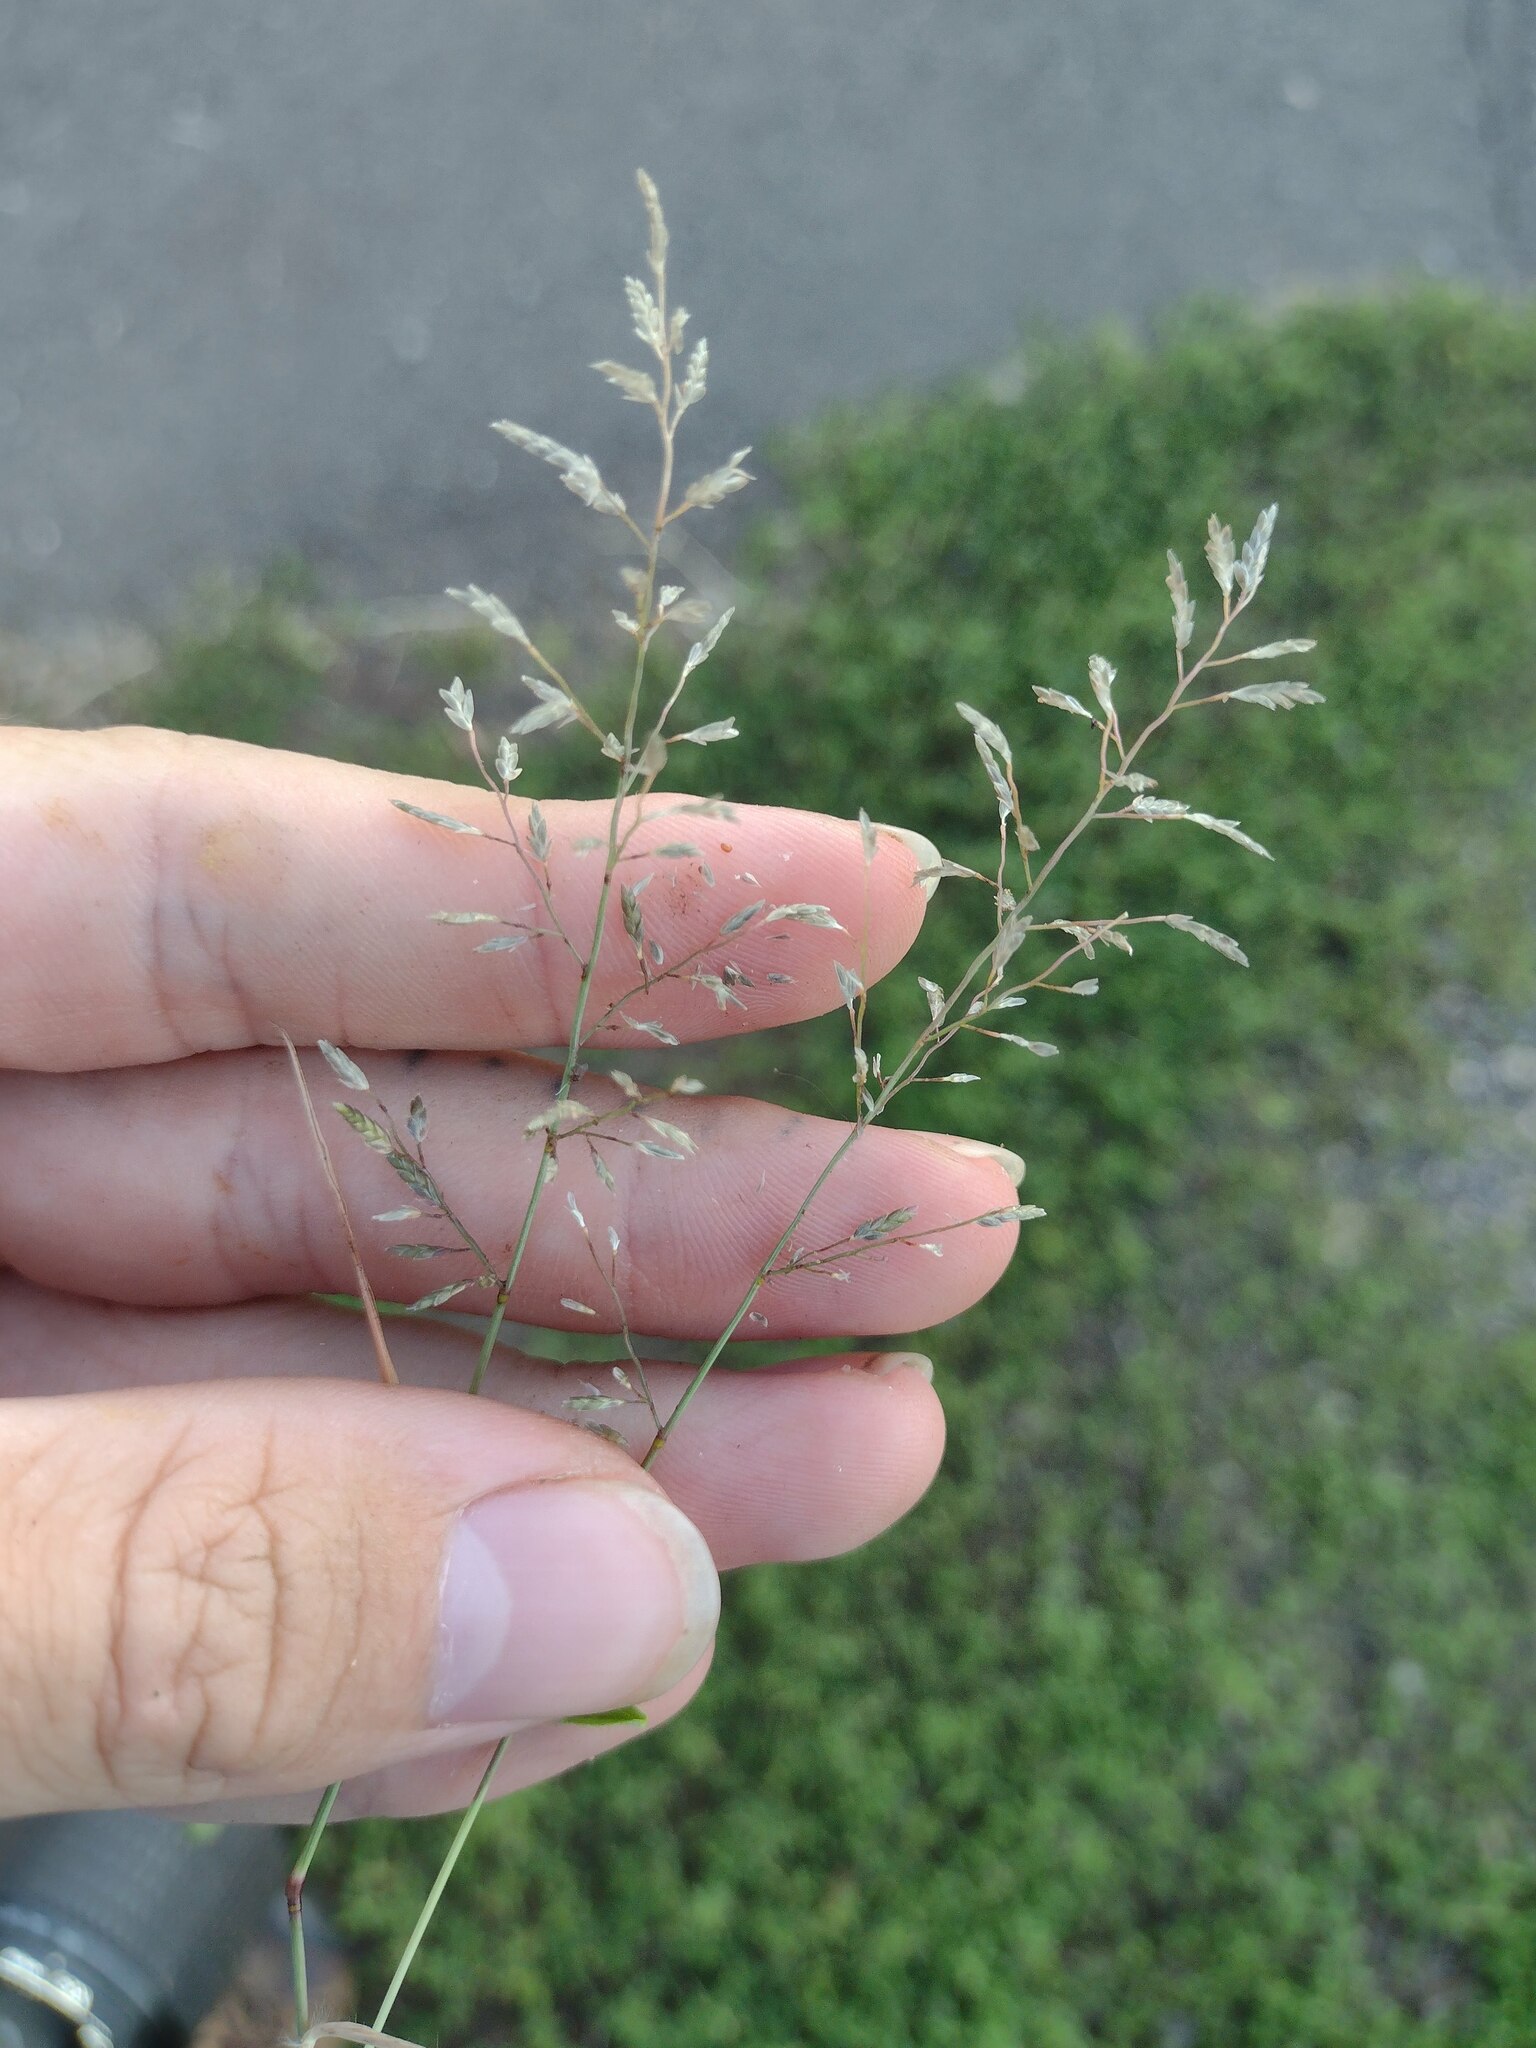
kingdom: Plantae
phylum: Tracheophyta
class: Liliopsida
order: Poales
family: Poaceae
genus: Eragrostis
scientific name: Eragrostis barrelieri
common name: Mediterranean lovegrass
